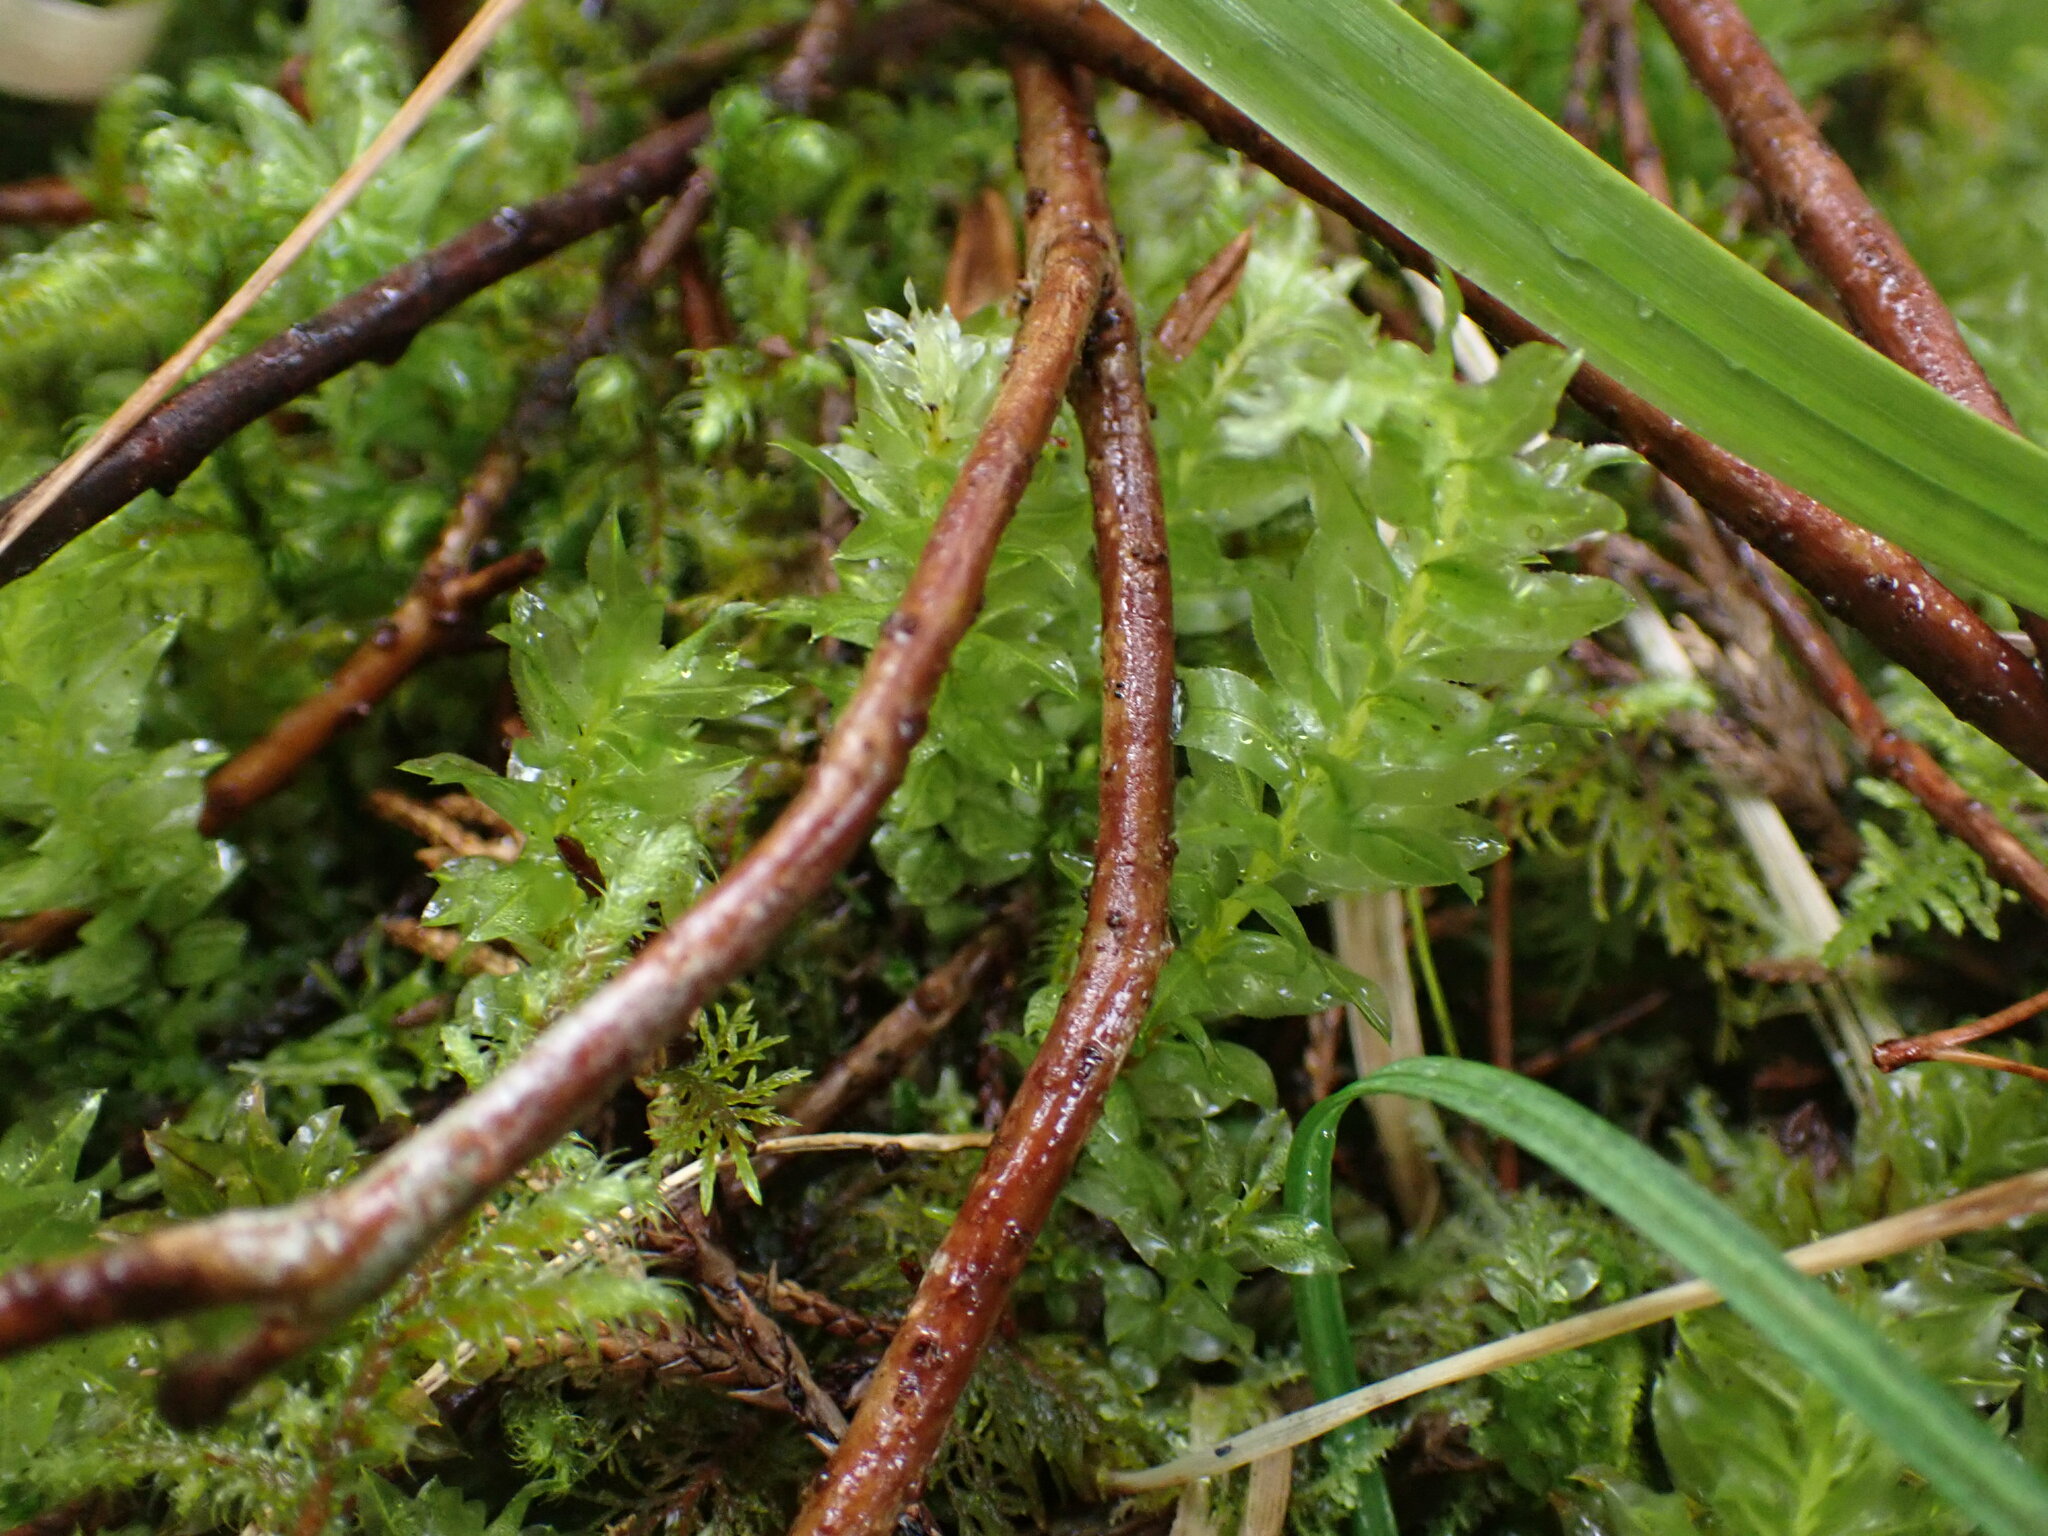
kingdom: Plantae
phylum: Bryophyta
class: Bryopsida
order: Bryales
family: Mniaceae
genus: Plagiomnium
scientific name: Plagiomnium insigne
